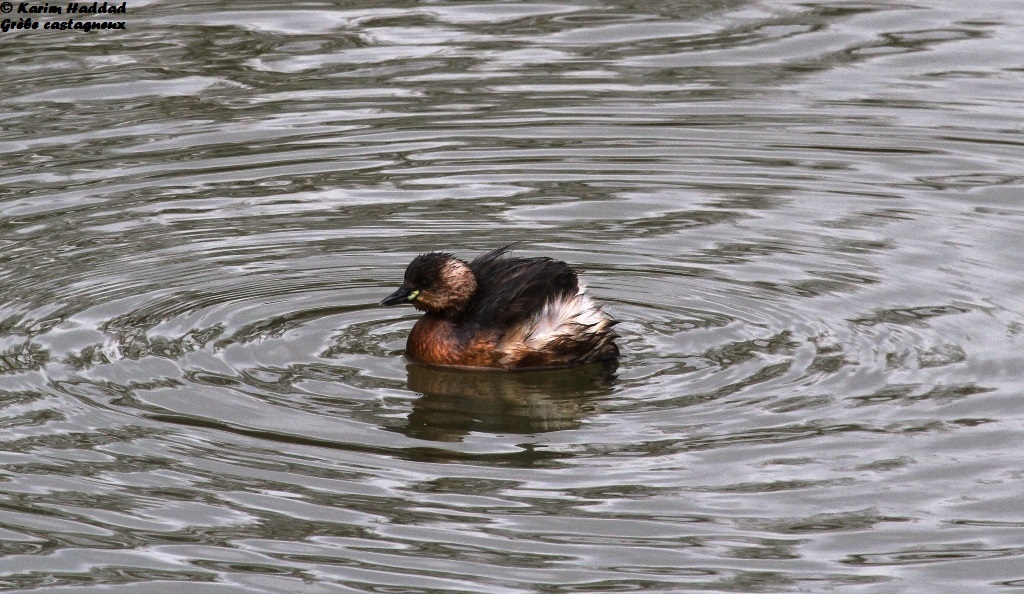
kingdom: Animalia
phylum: Chordata
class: Aves
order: Podicipediformes
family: Podicipedidae
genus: Tachybaptus
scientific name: Tachybaptus ruficollis
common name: Little grebe
